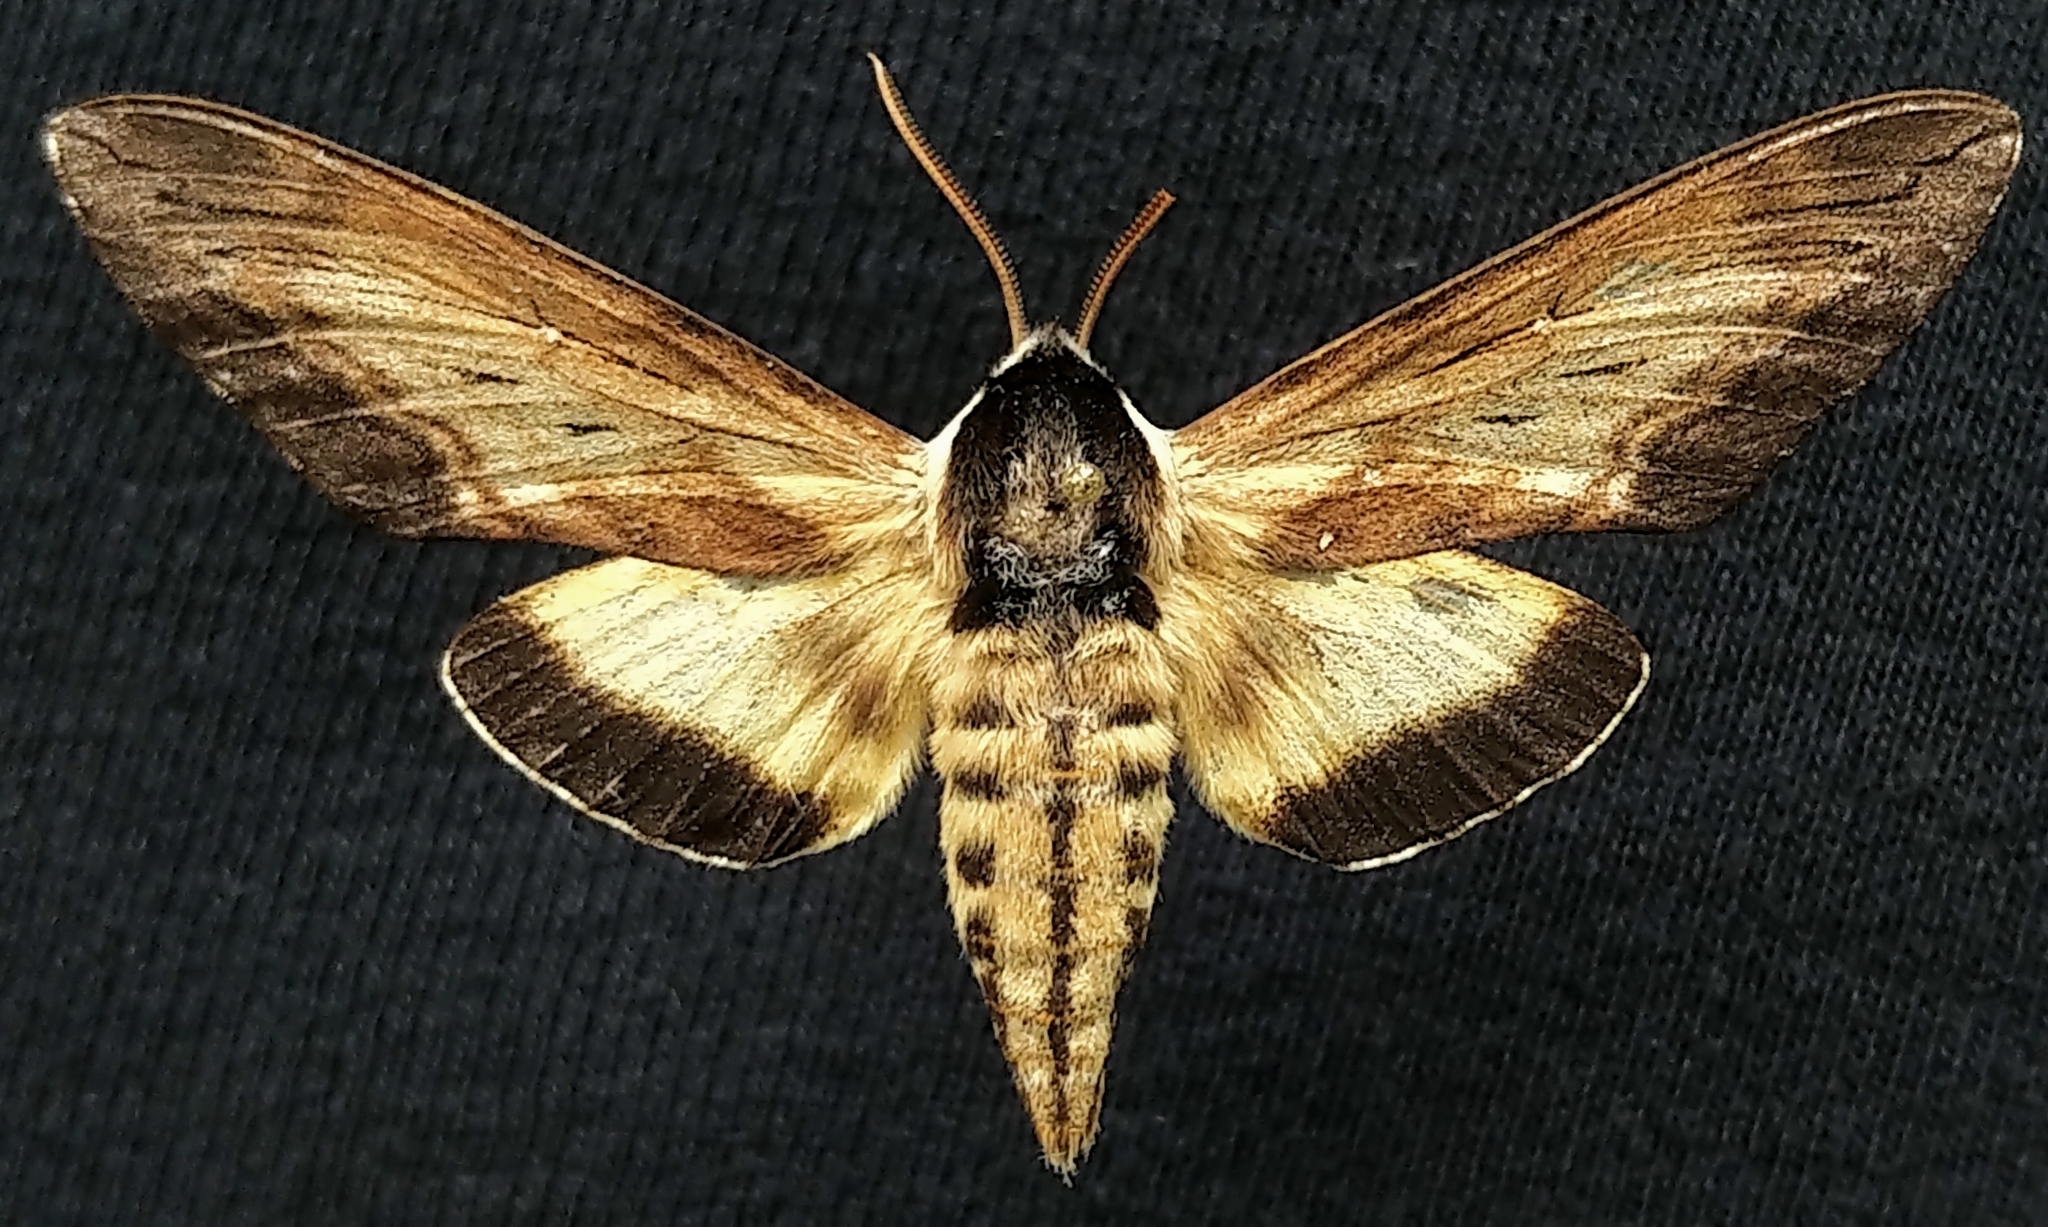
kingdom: Animalia
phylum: Arthropoda
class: Insecta
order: Lepidoptera
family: Sphingidae
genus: Sphinx
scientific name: Sphinx luscitiosa
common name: Clemen's sphinx
